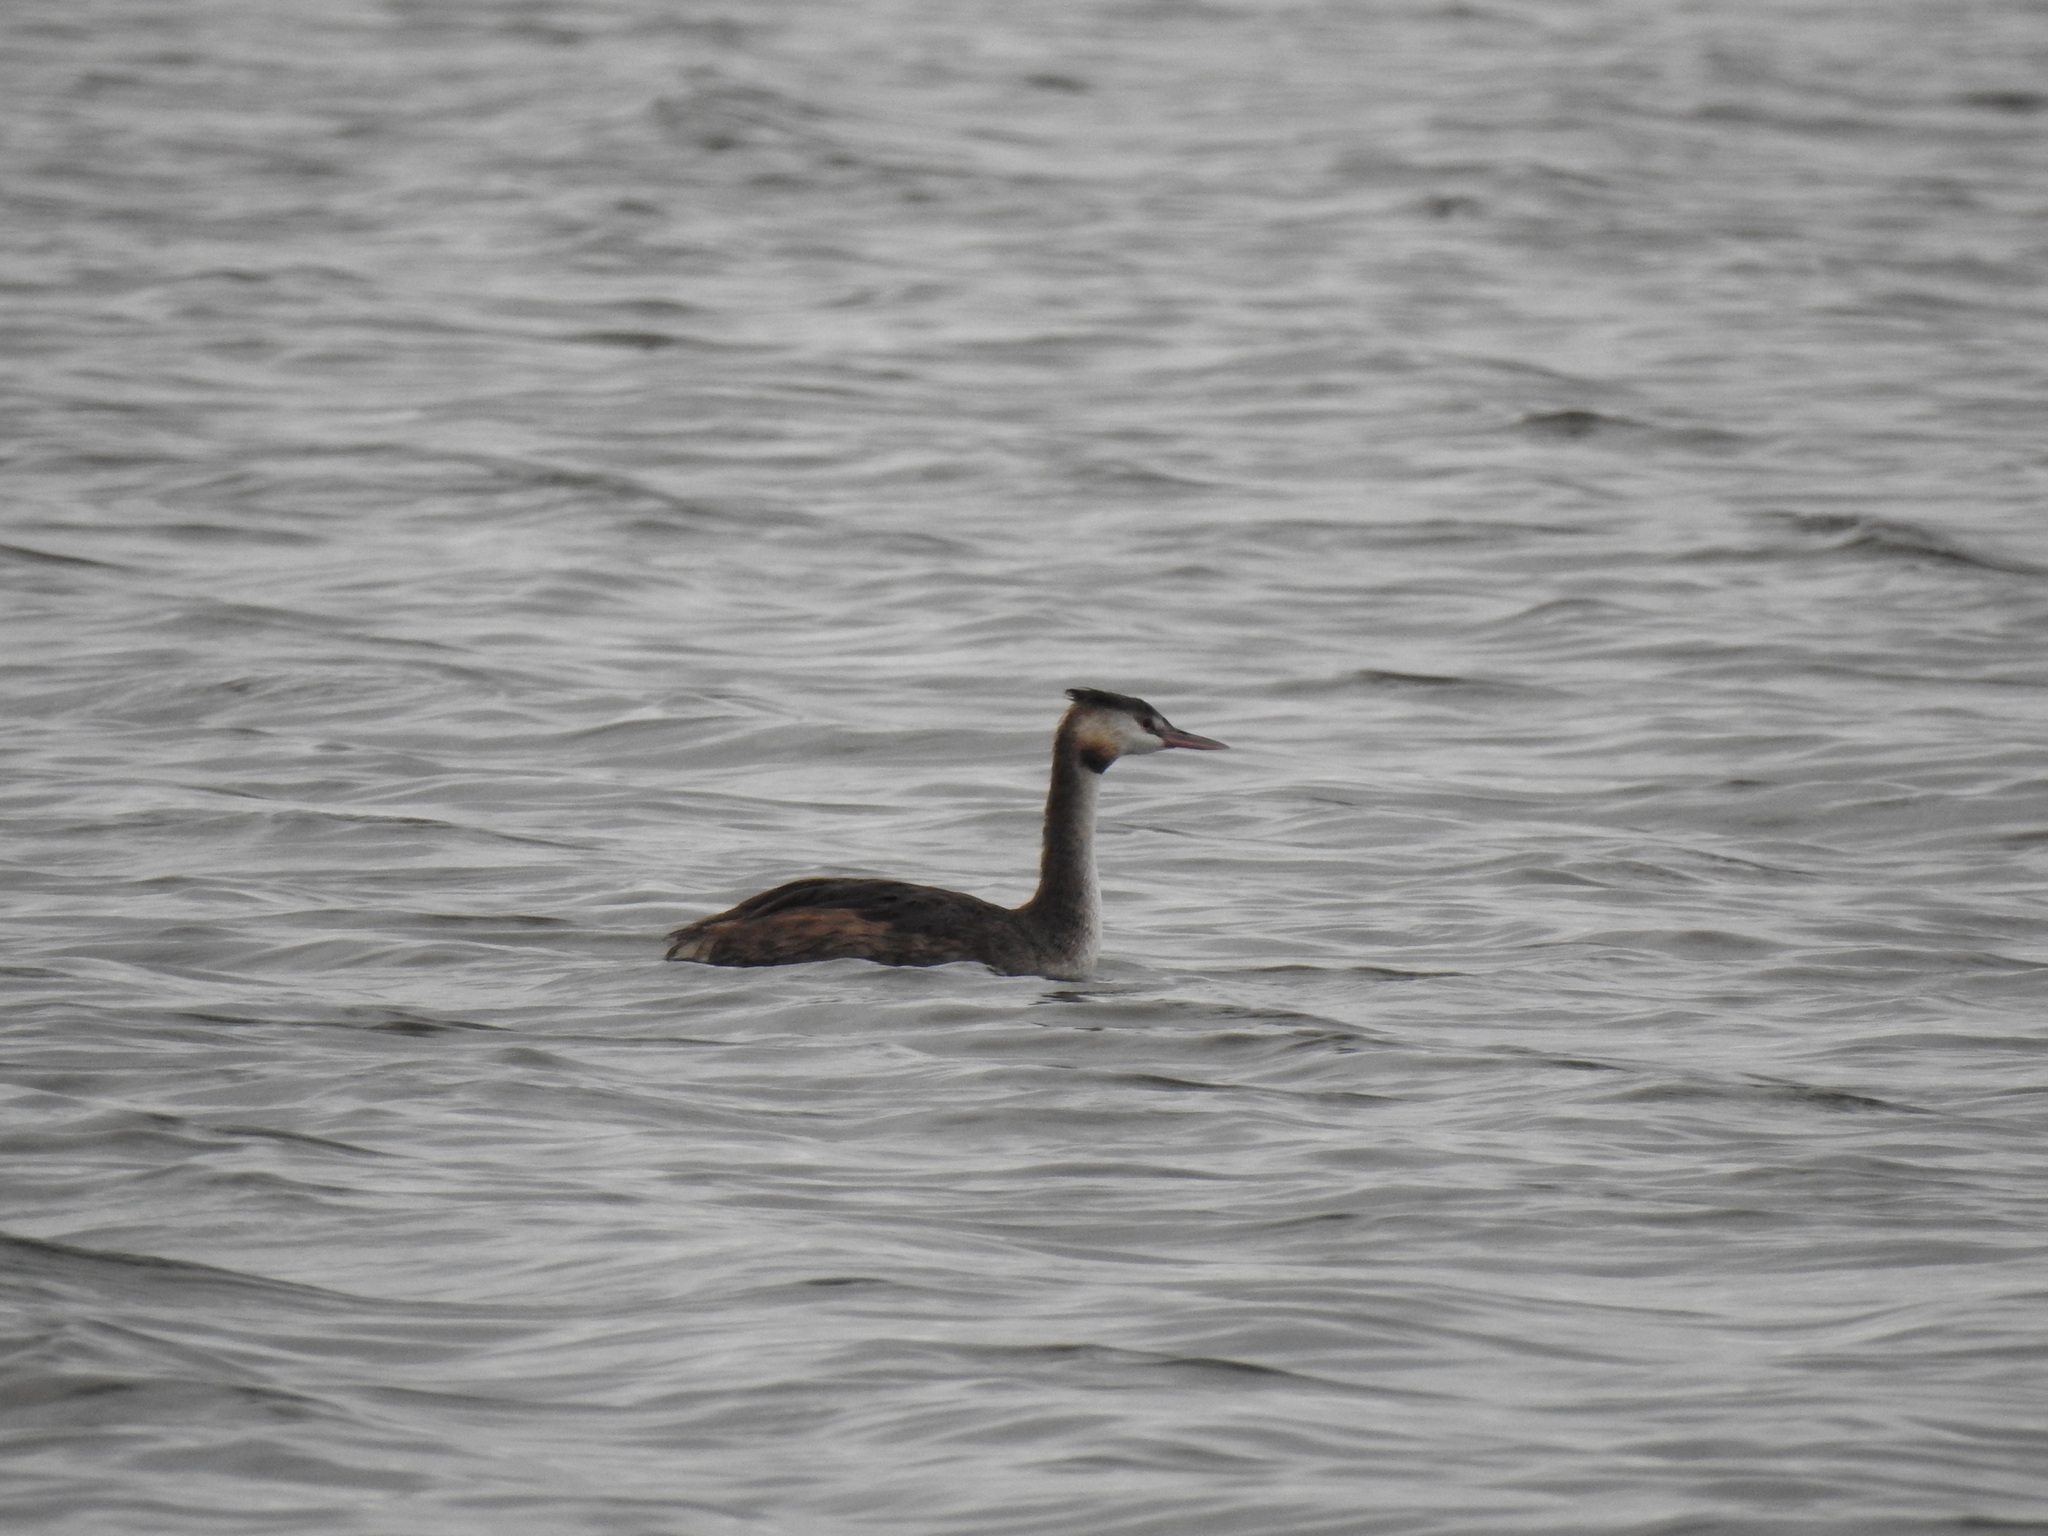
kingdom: Animalia
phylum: Chordata
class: Aves
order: Podicipediformes
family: Podicipedidae
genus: Podiceps
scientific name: Podiceps cristatus
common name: Great crested grebe
